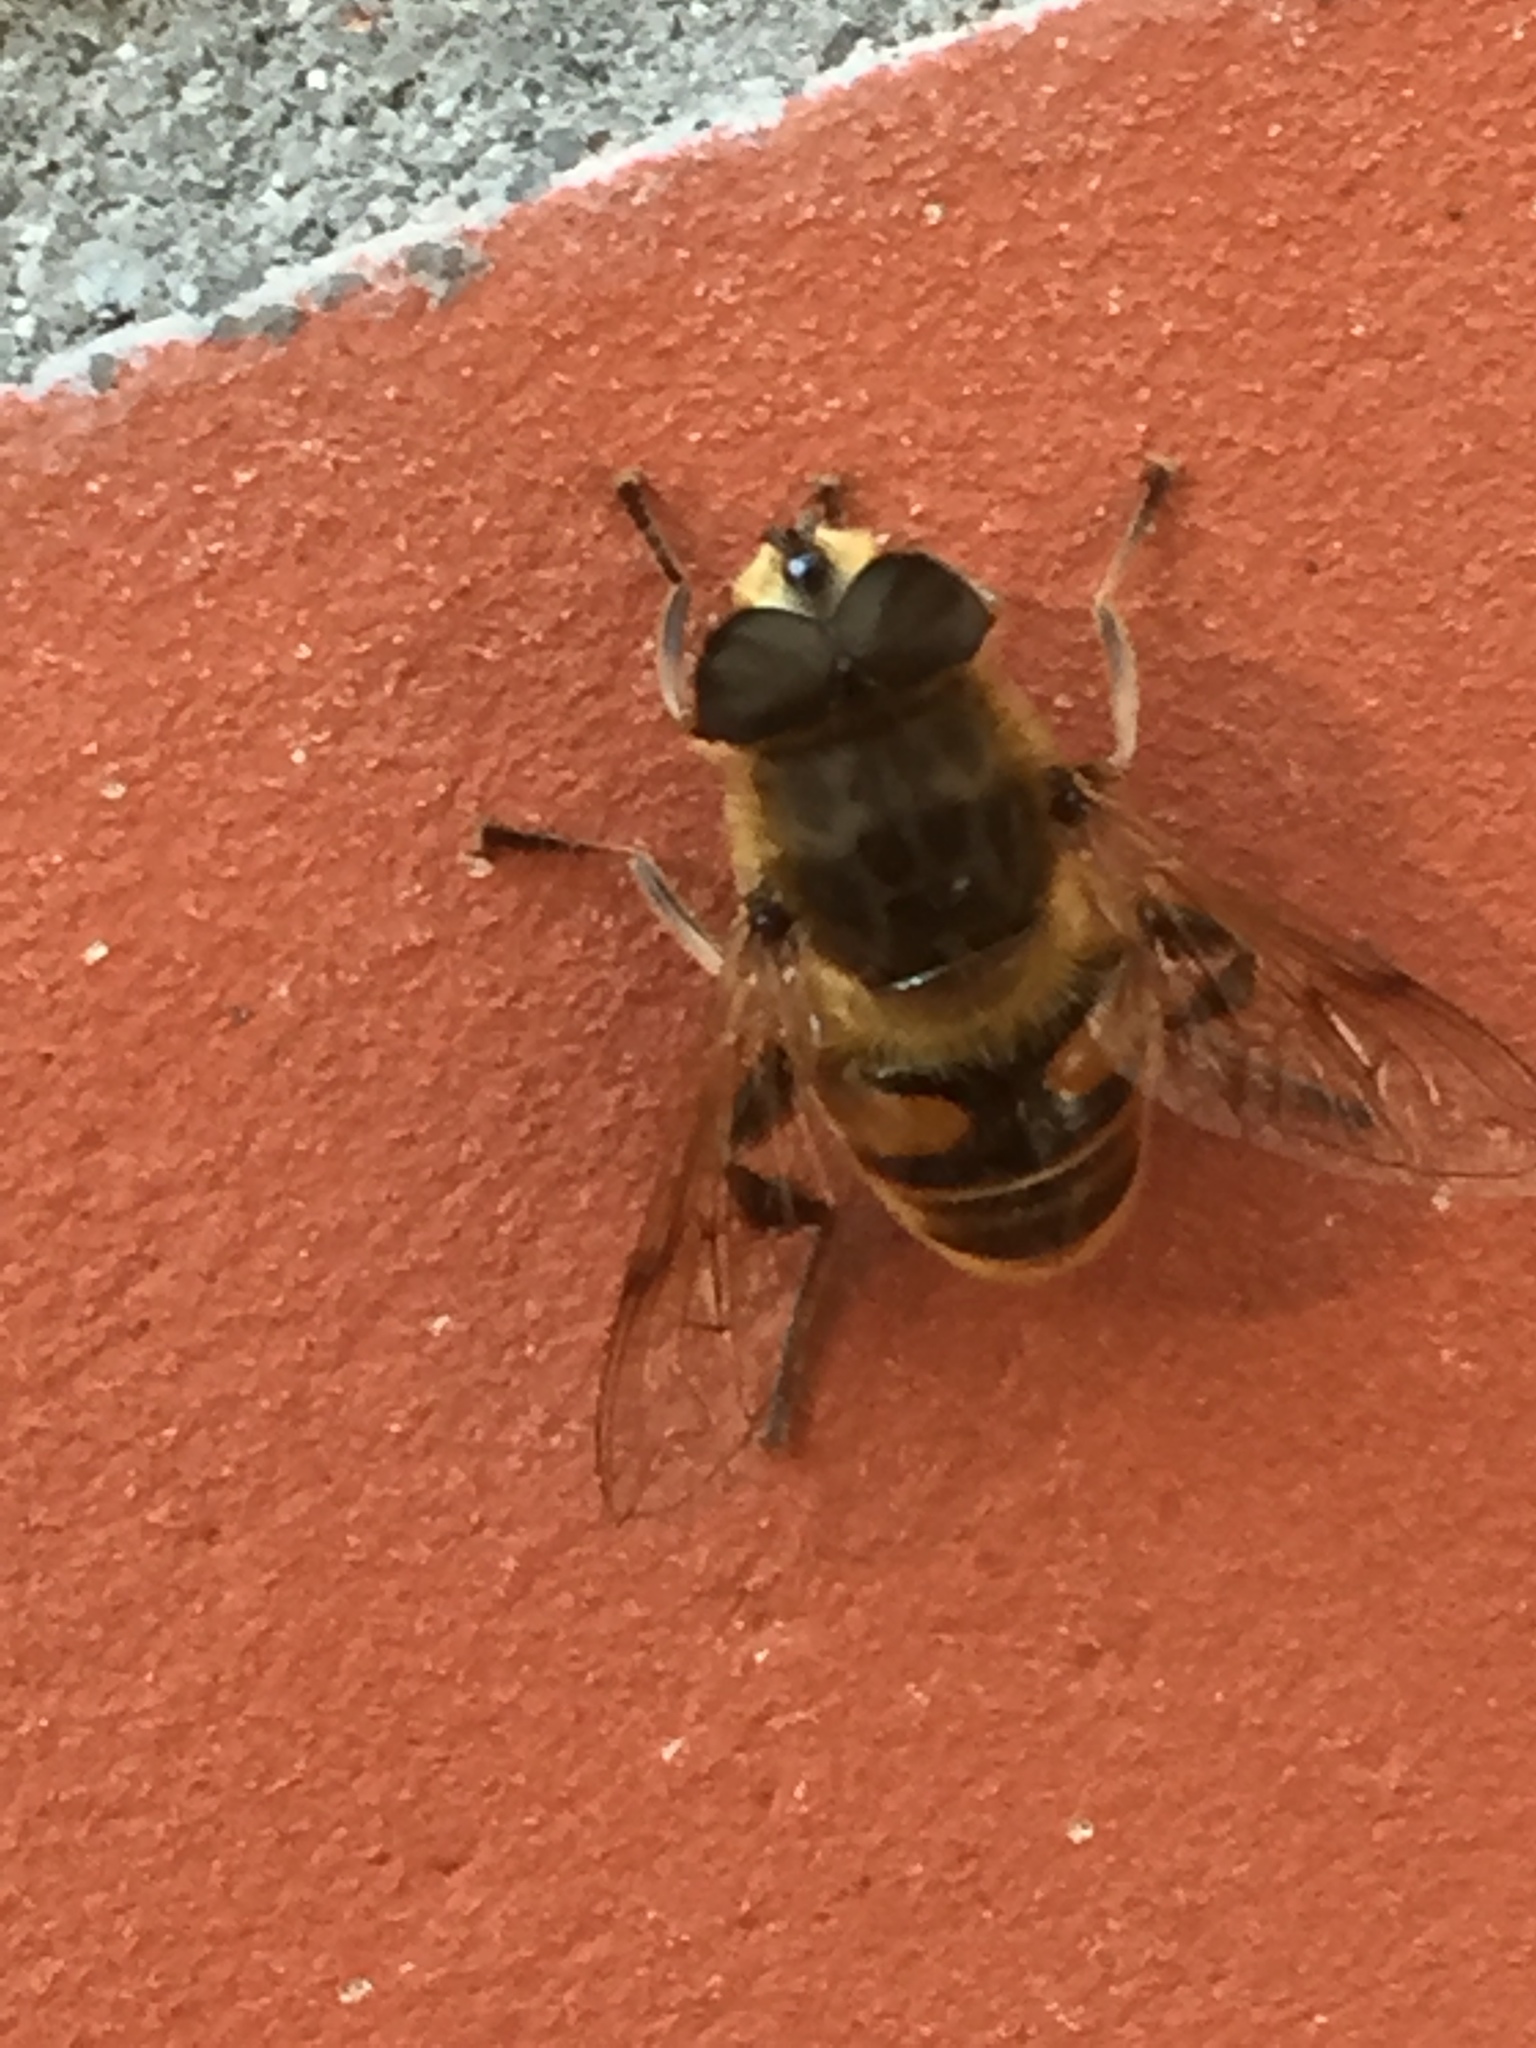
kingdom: Animalia
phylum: Arthropoda
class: Insecta
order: Diptera
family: Syrphidae
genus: Eristalis
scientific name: Eristalis tenax
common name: Drone fly
